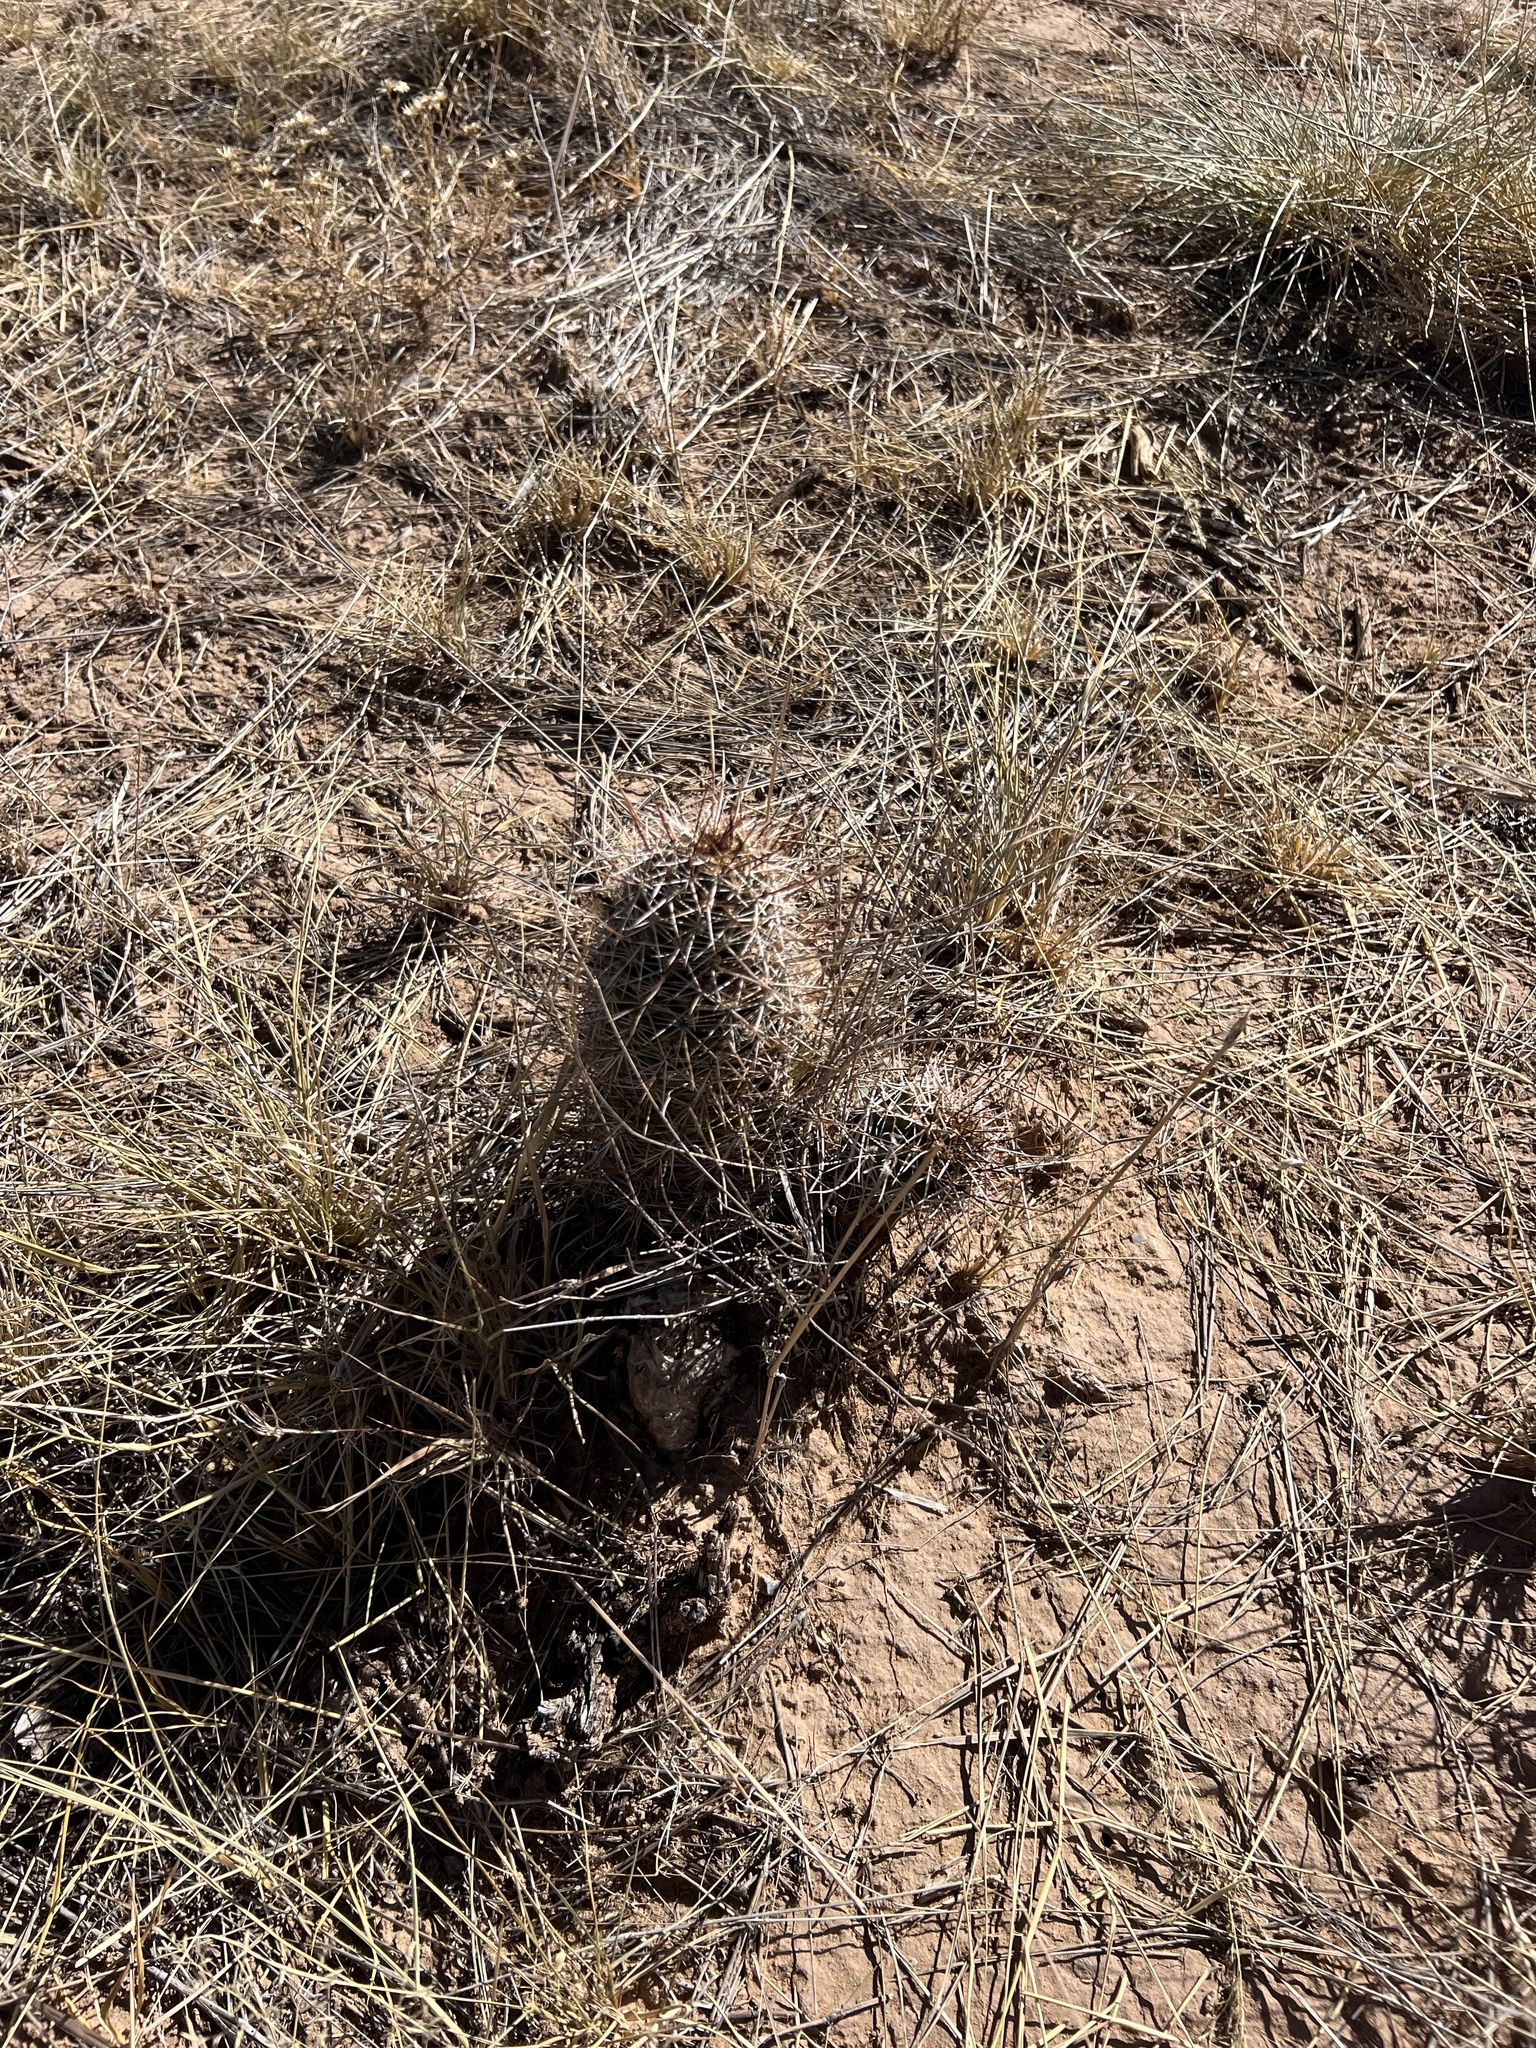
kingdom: Plantae
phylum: Tracheophyta
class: Magnoliopsida
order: Caryophyllales
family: Cactaceae
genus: Echinocereus
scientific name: Echinocereus fendleri
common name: Fendler's hedgehog cactus
